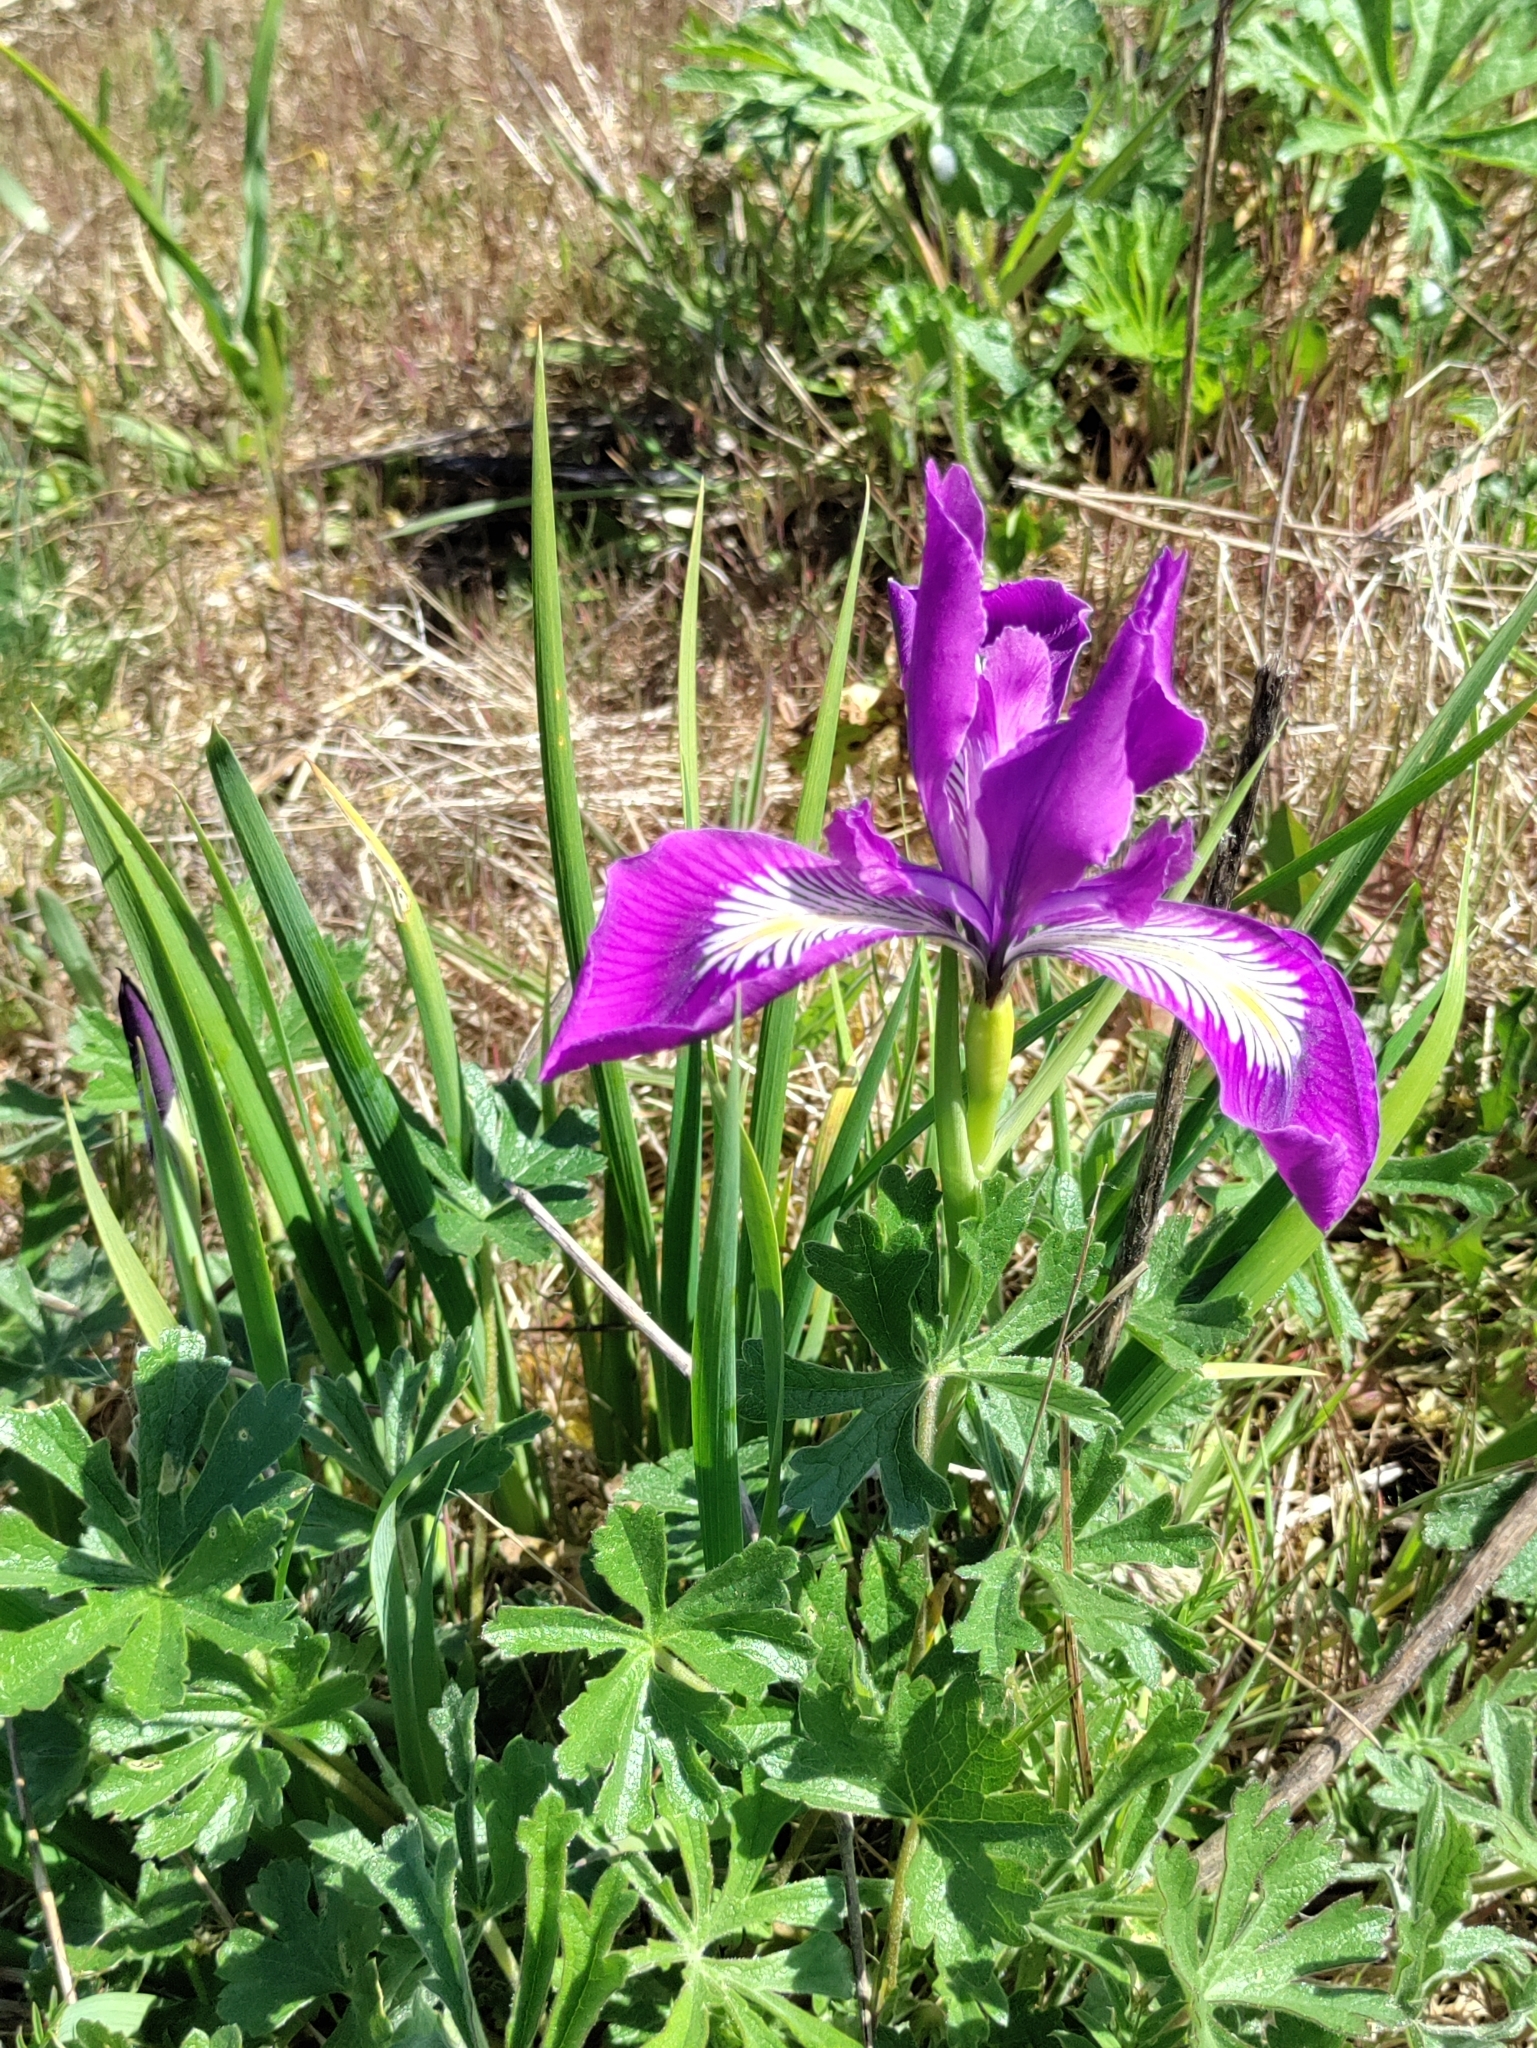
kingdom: Plantae
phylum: Tracheophyta
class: Liliopsida
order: Asparagales
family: Iridaceae
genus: Iris
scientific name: Iris tenax
